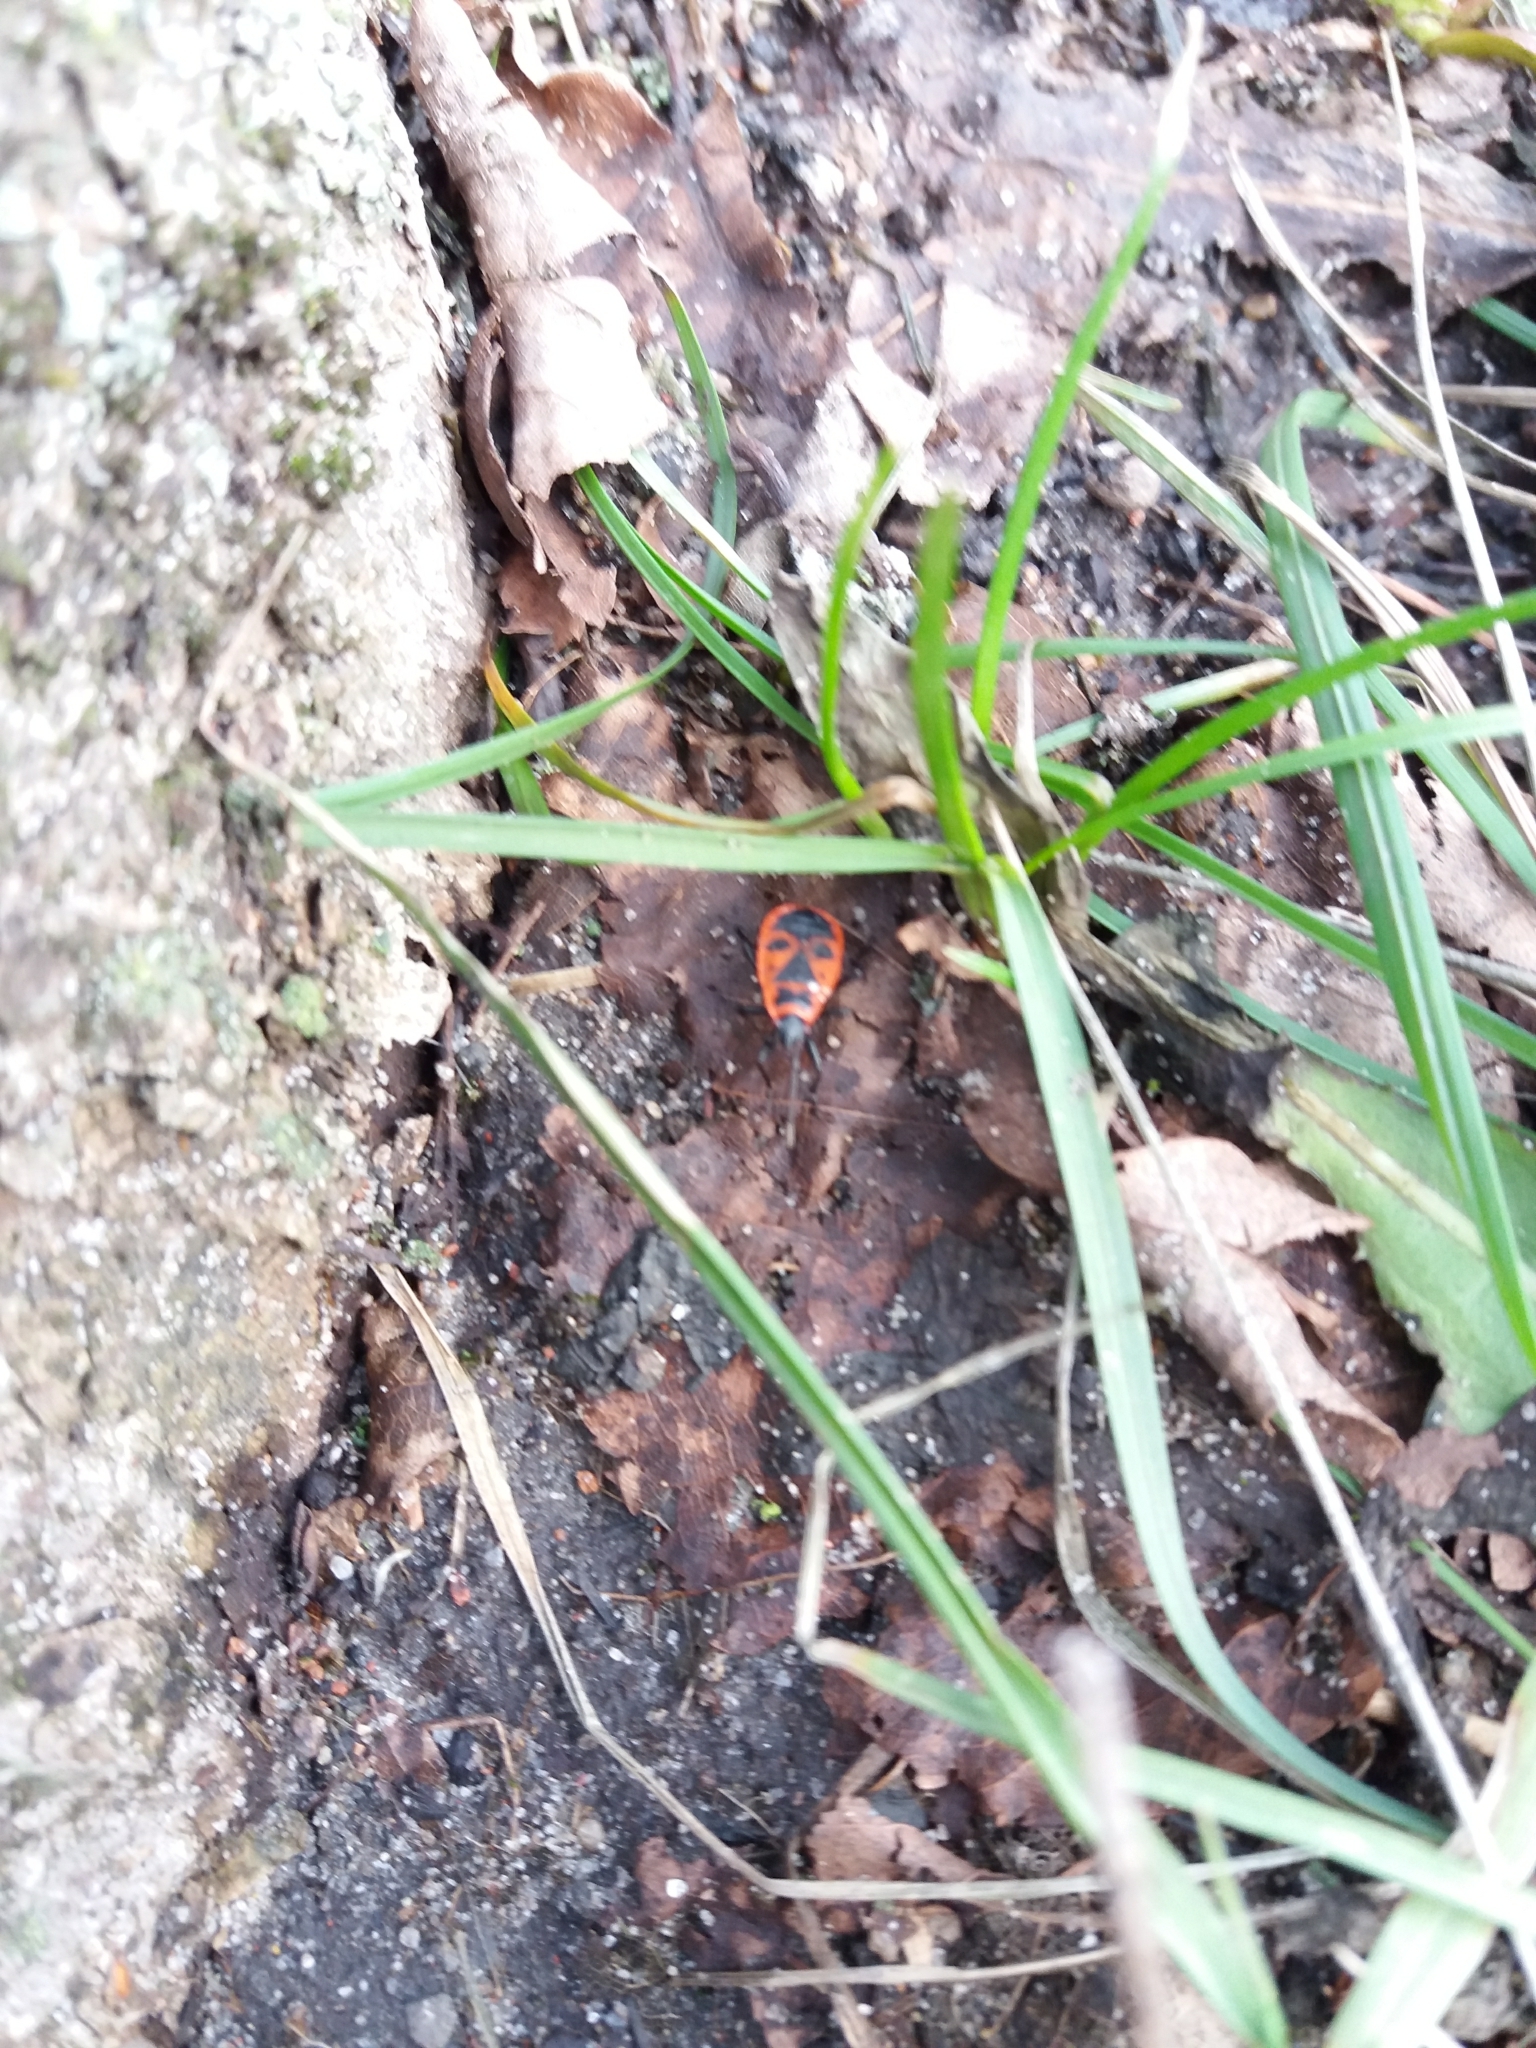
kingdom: Animalia
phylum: Arthropoda
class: Insecta
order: Hemiptera
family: Pyrrhocoridae
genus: Pyrrhocoris
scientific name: Pyrrhocoris apterus
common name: Firebug
